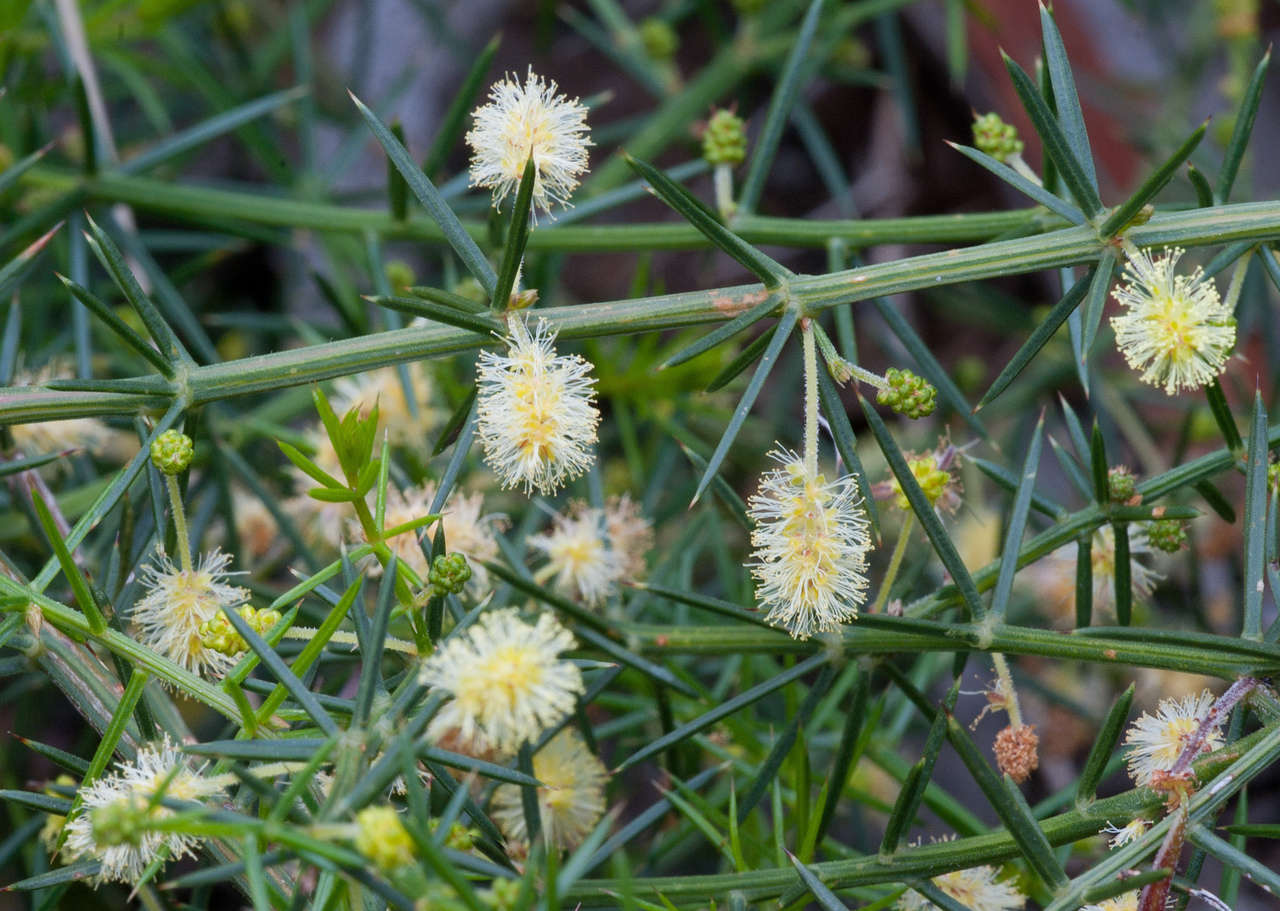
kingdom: Plantae
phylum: Tracheophyta
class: Magnoliopsida
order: Fabales
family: Fabaceae
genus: Acacia
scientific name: Acacia verticillata
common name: Prickly moses
